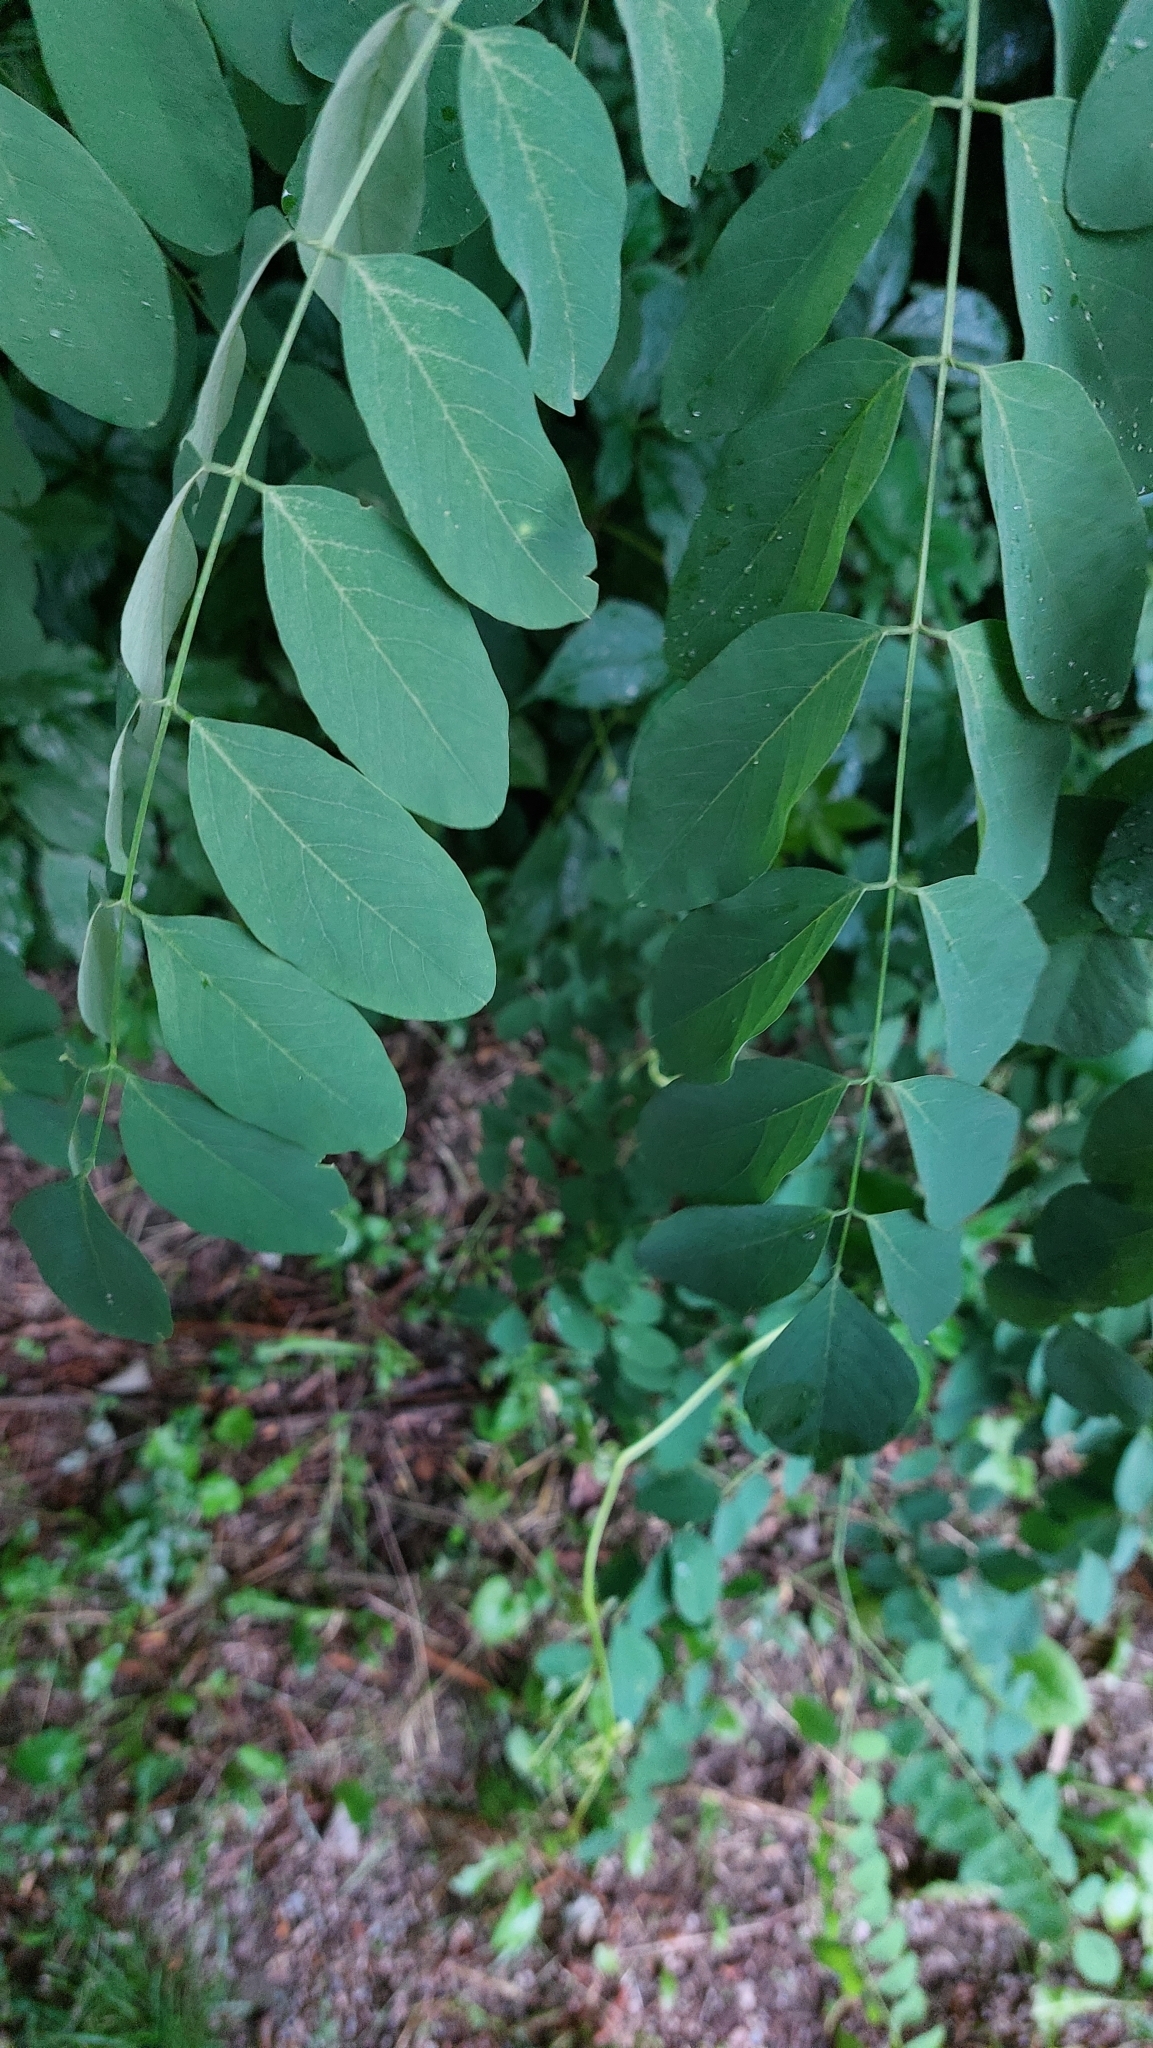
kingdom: Plantae
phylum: Tracheophyta
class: Magnoliopsida
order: Fabales
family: Fabaceae
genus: Robinia
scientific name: Robinia pseudoacacia
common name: Black locust
